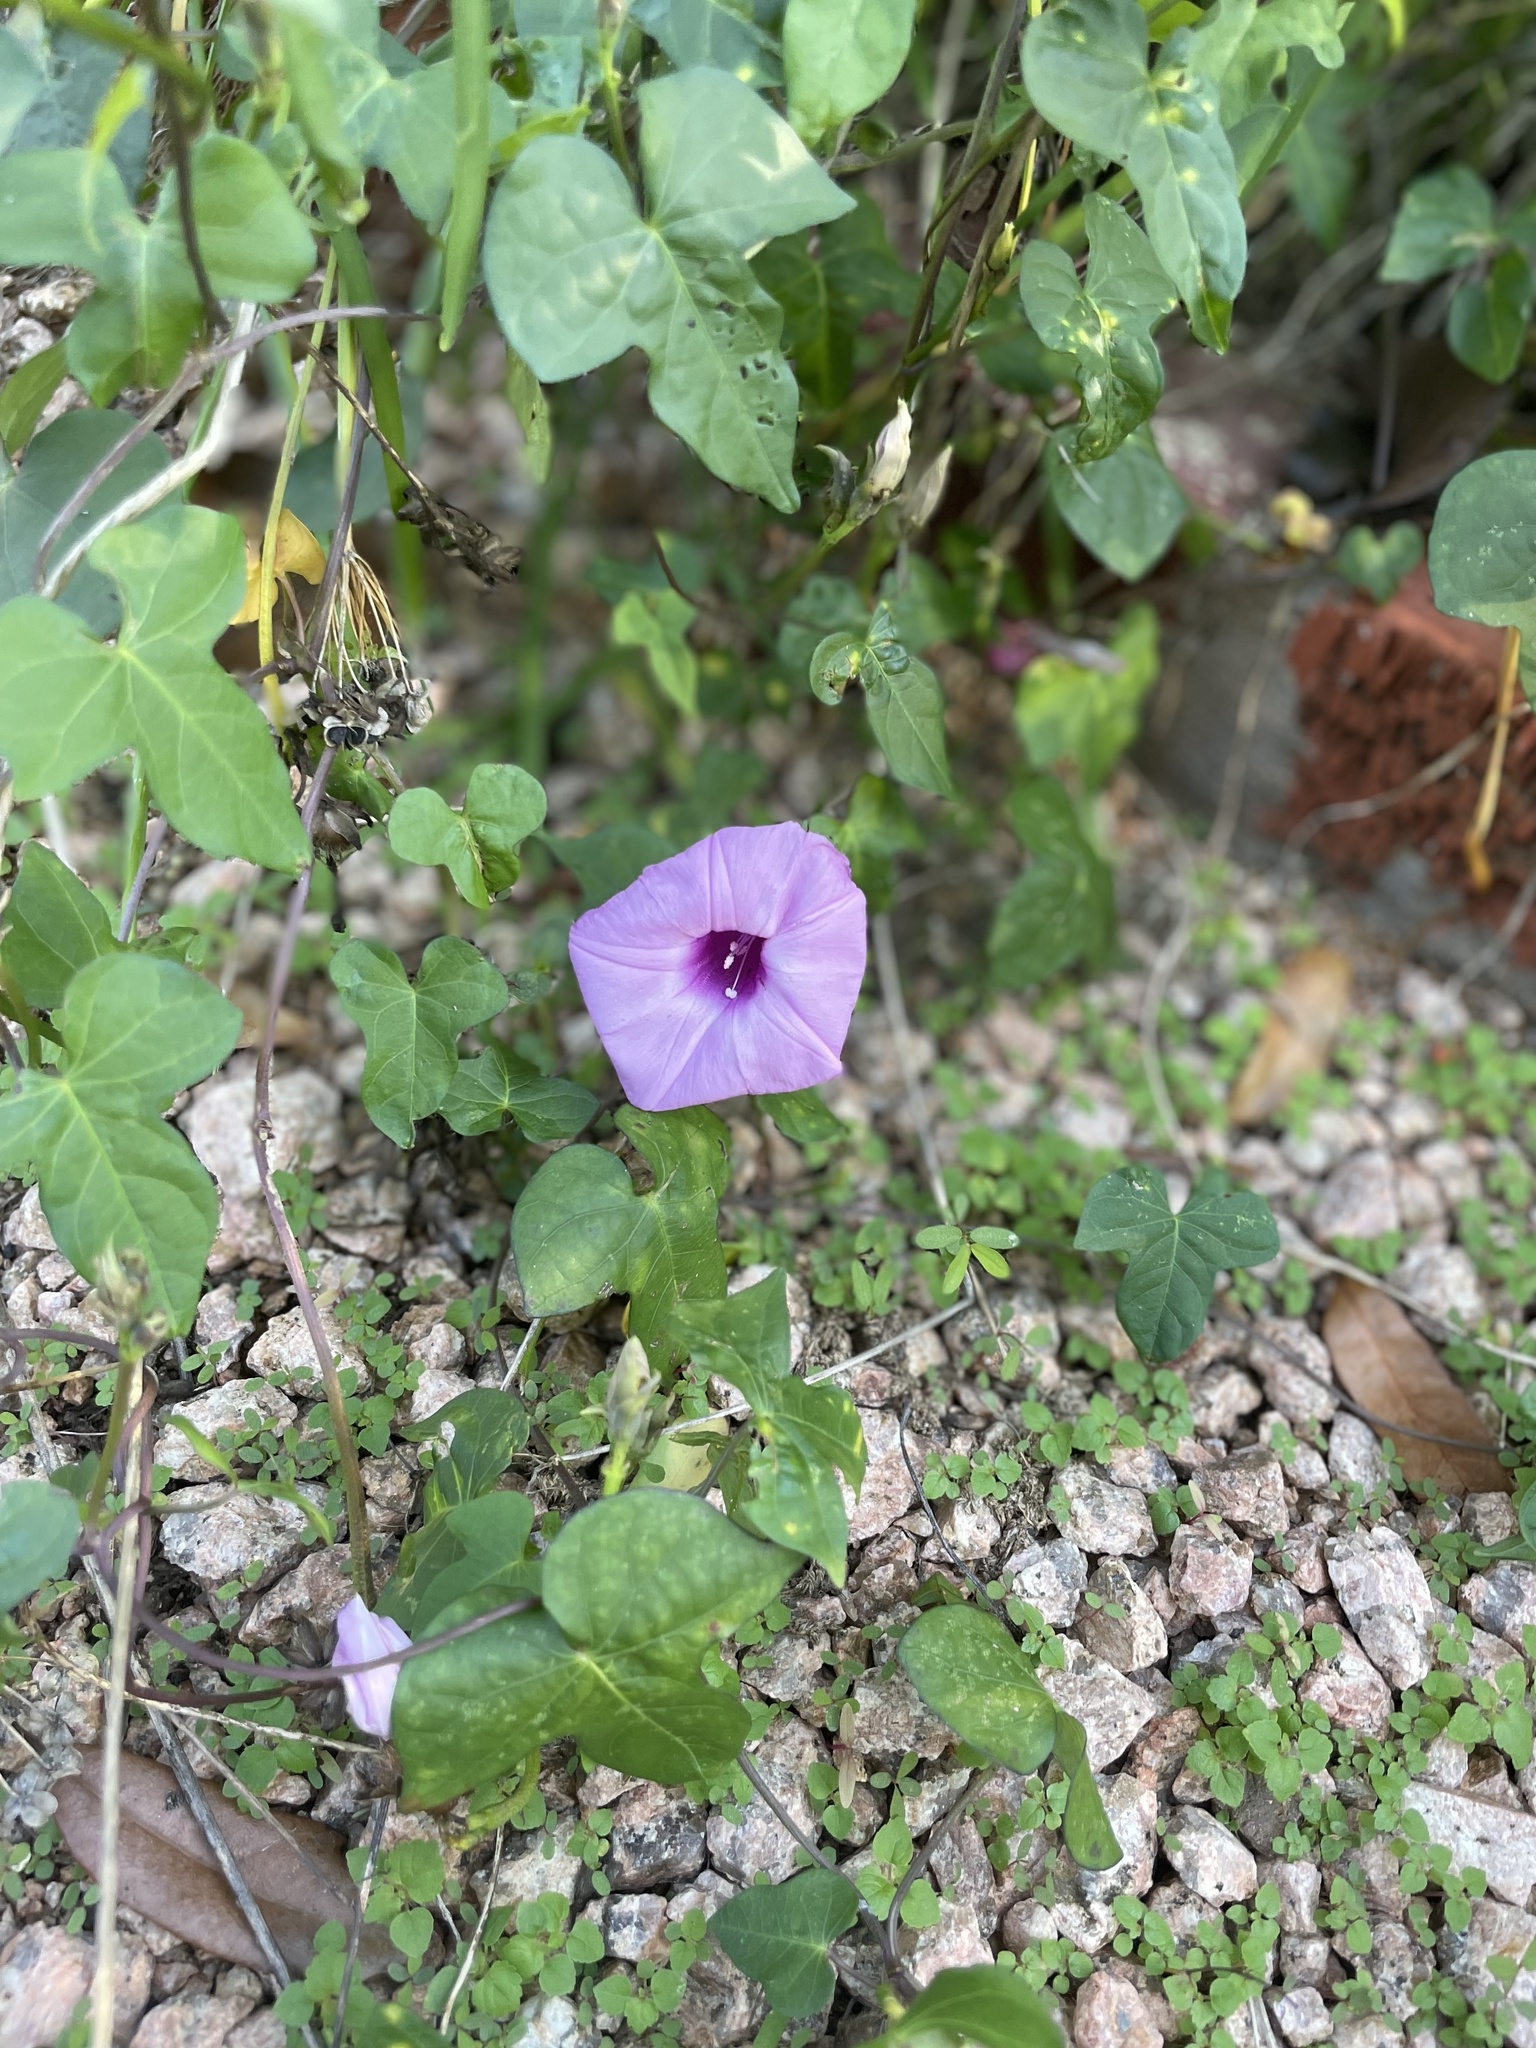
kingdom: Plantae
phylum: Tracheophyta
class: Magnoliopsida
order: Solanales
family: Convolvulaceae
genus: Ipomoea
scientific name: Ipomoea cordatotriloba
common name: Cotton morning glory
